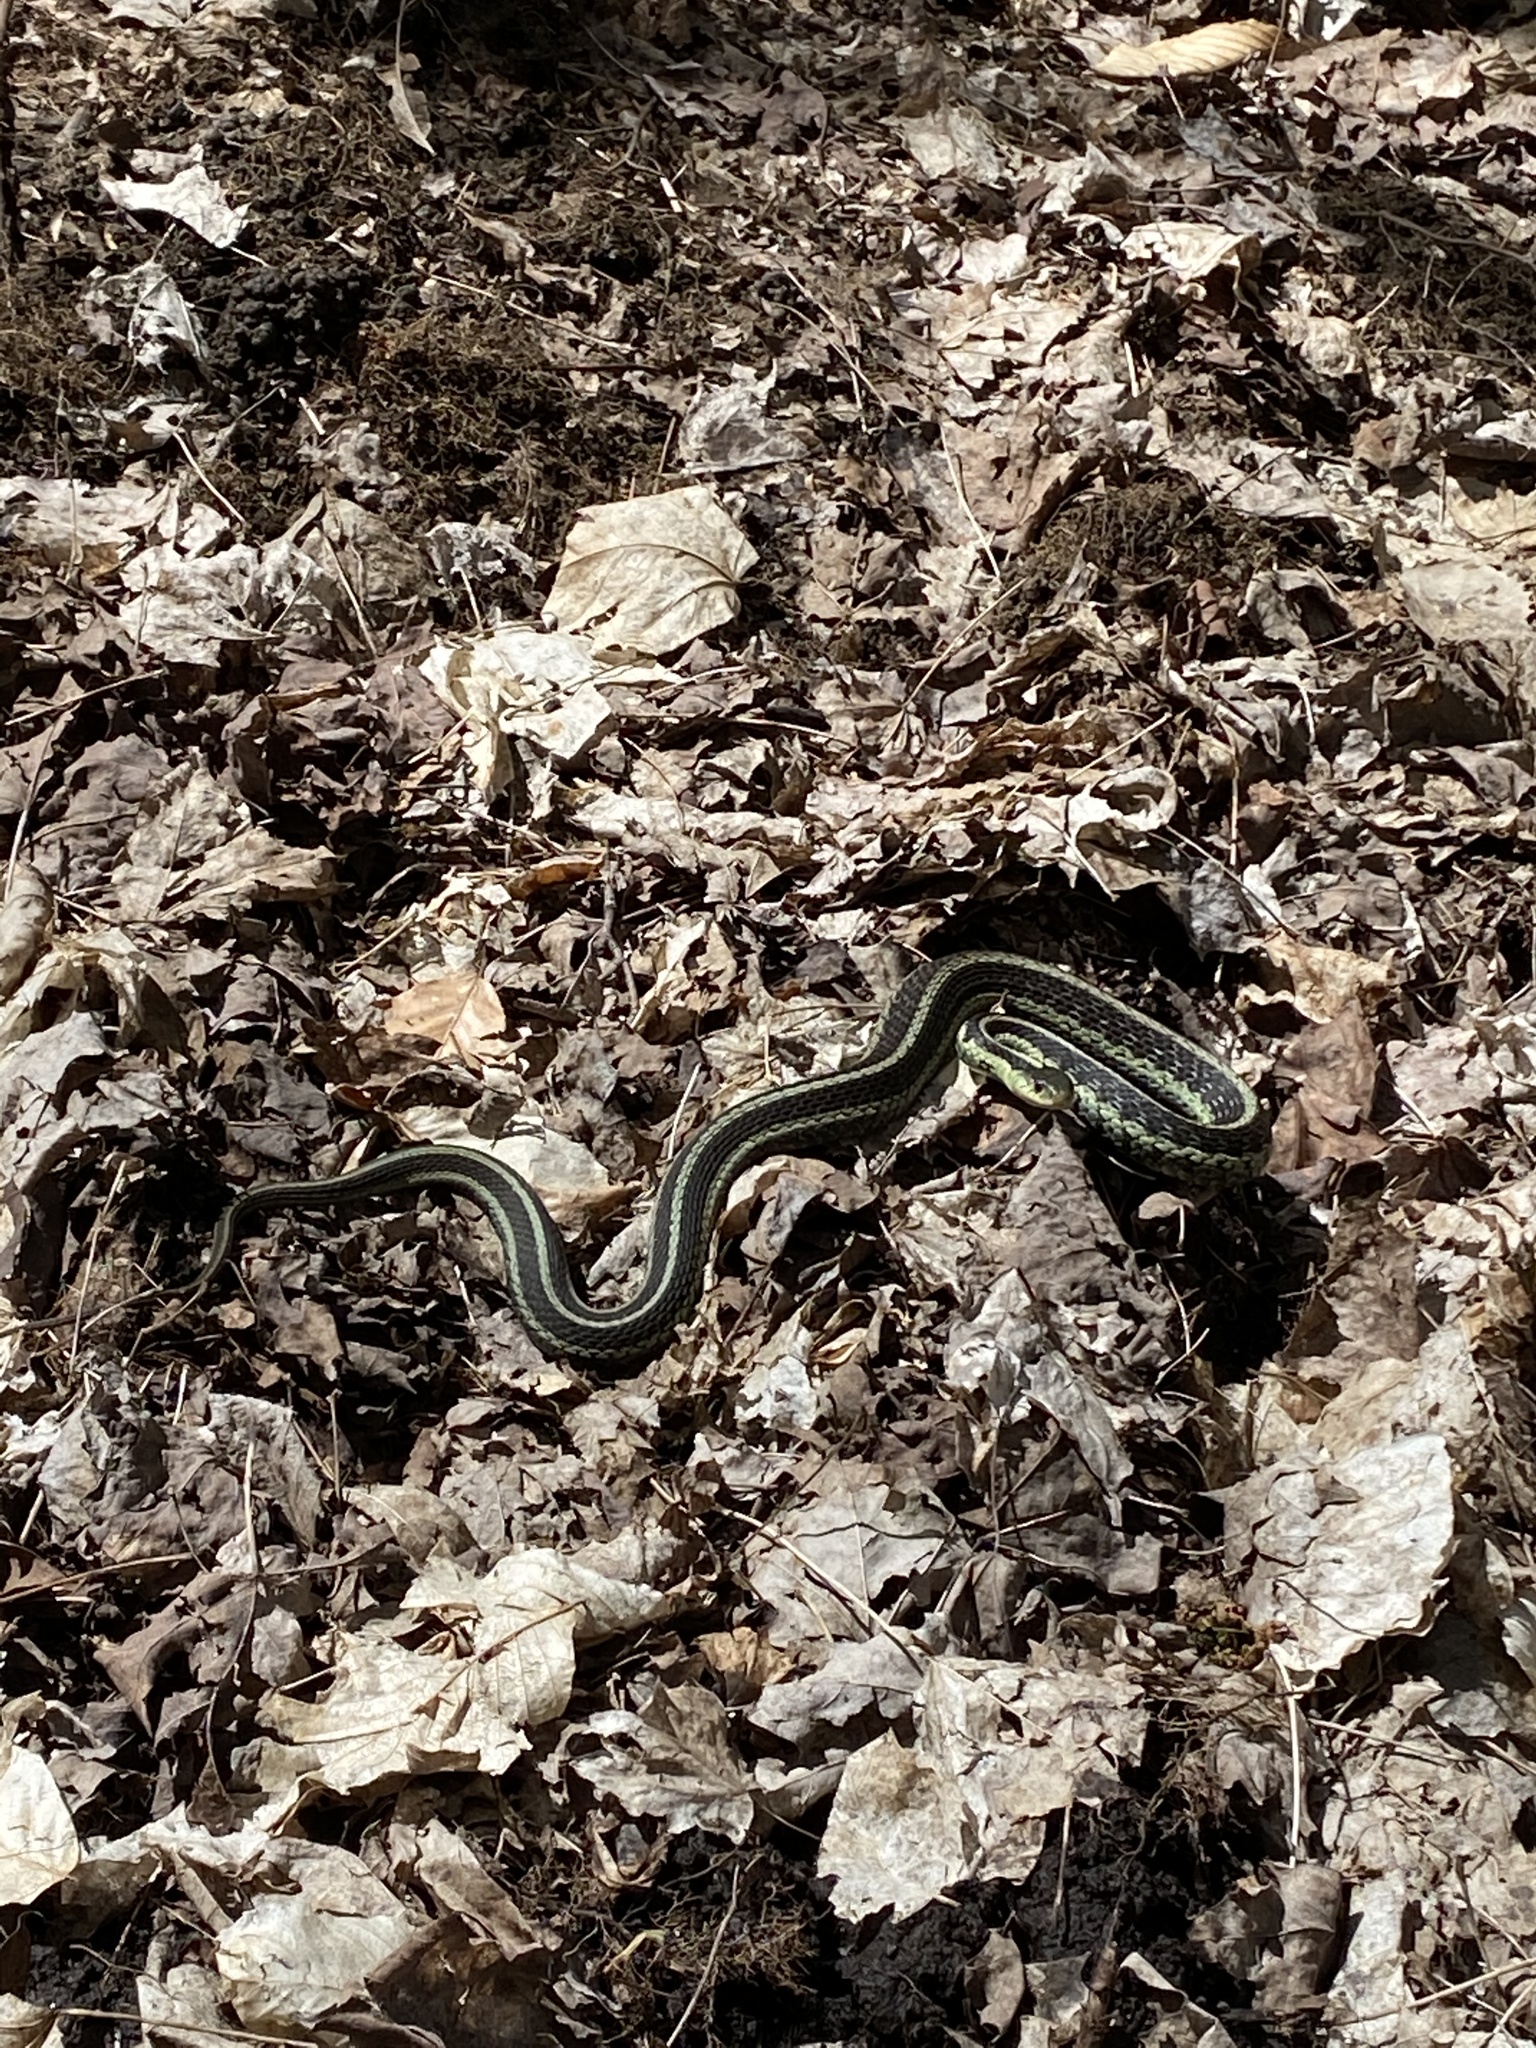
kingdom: Animalia
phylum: Chordata
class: Squamata
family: Colubridae
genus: Thamnophis
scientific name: Thamnophis sirtalis
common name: Common garter snake
